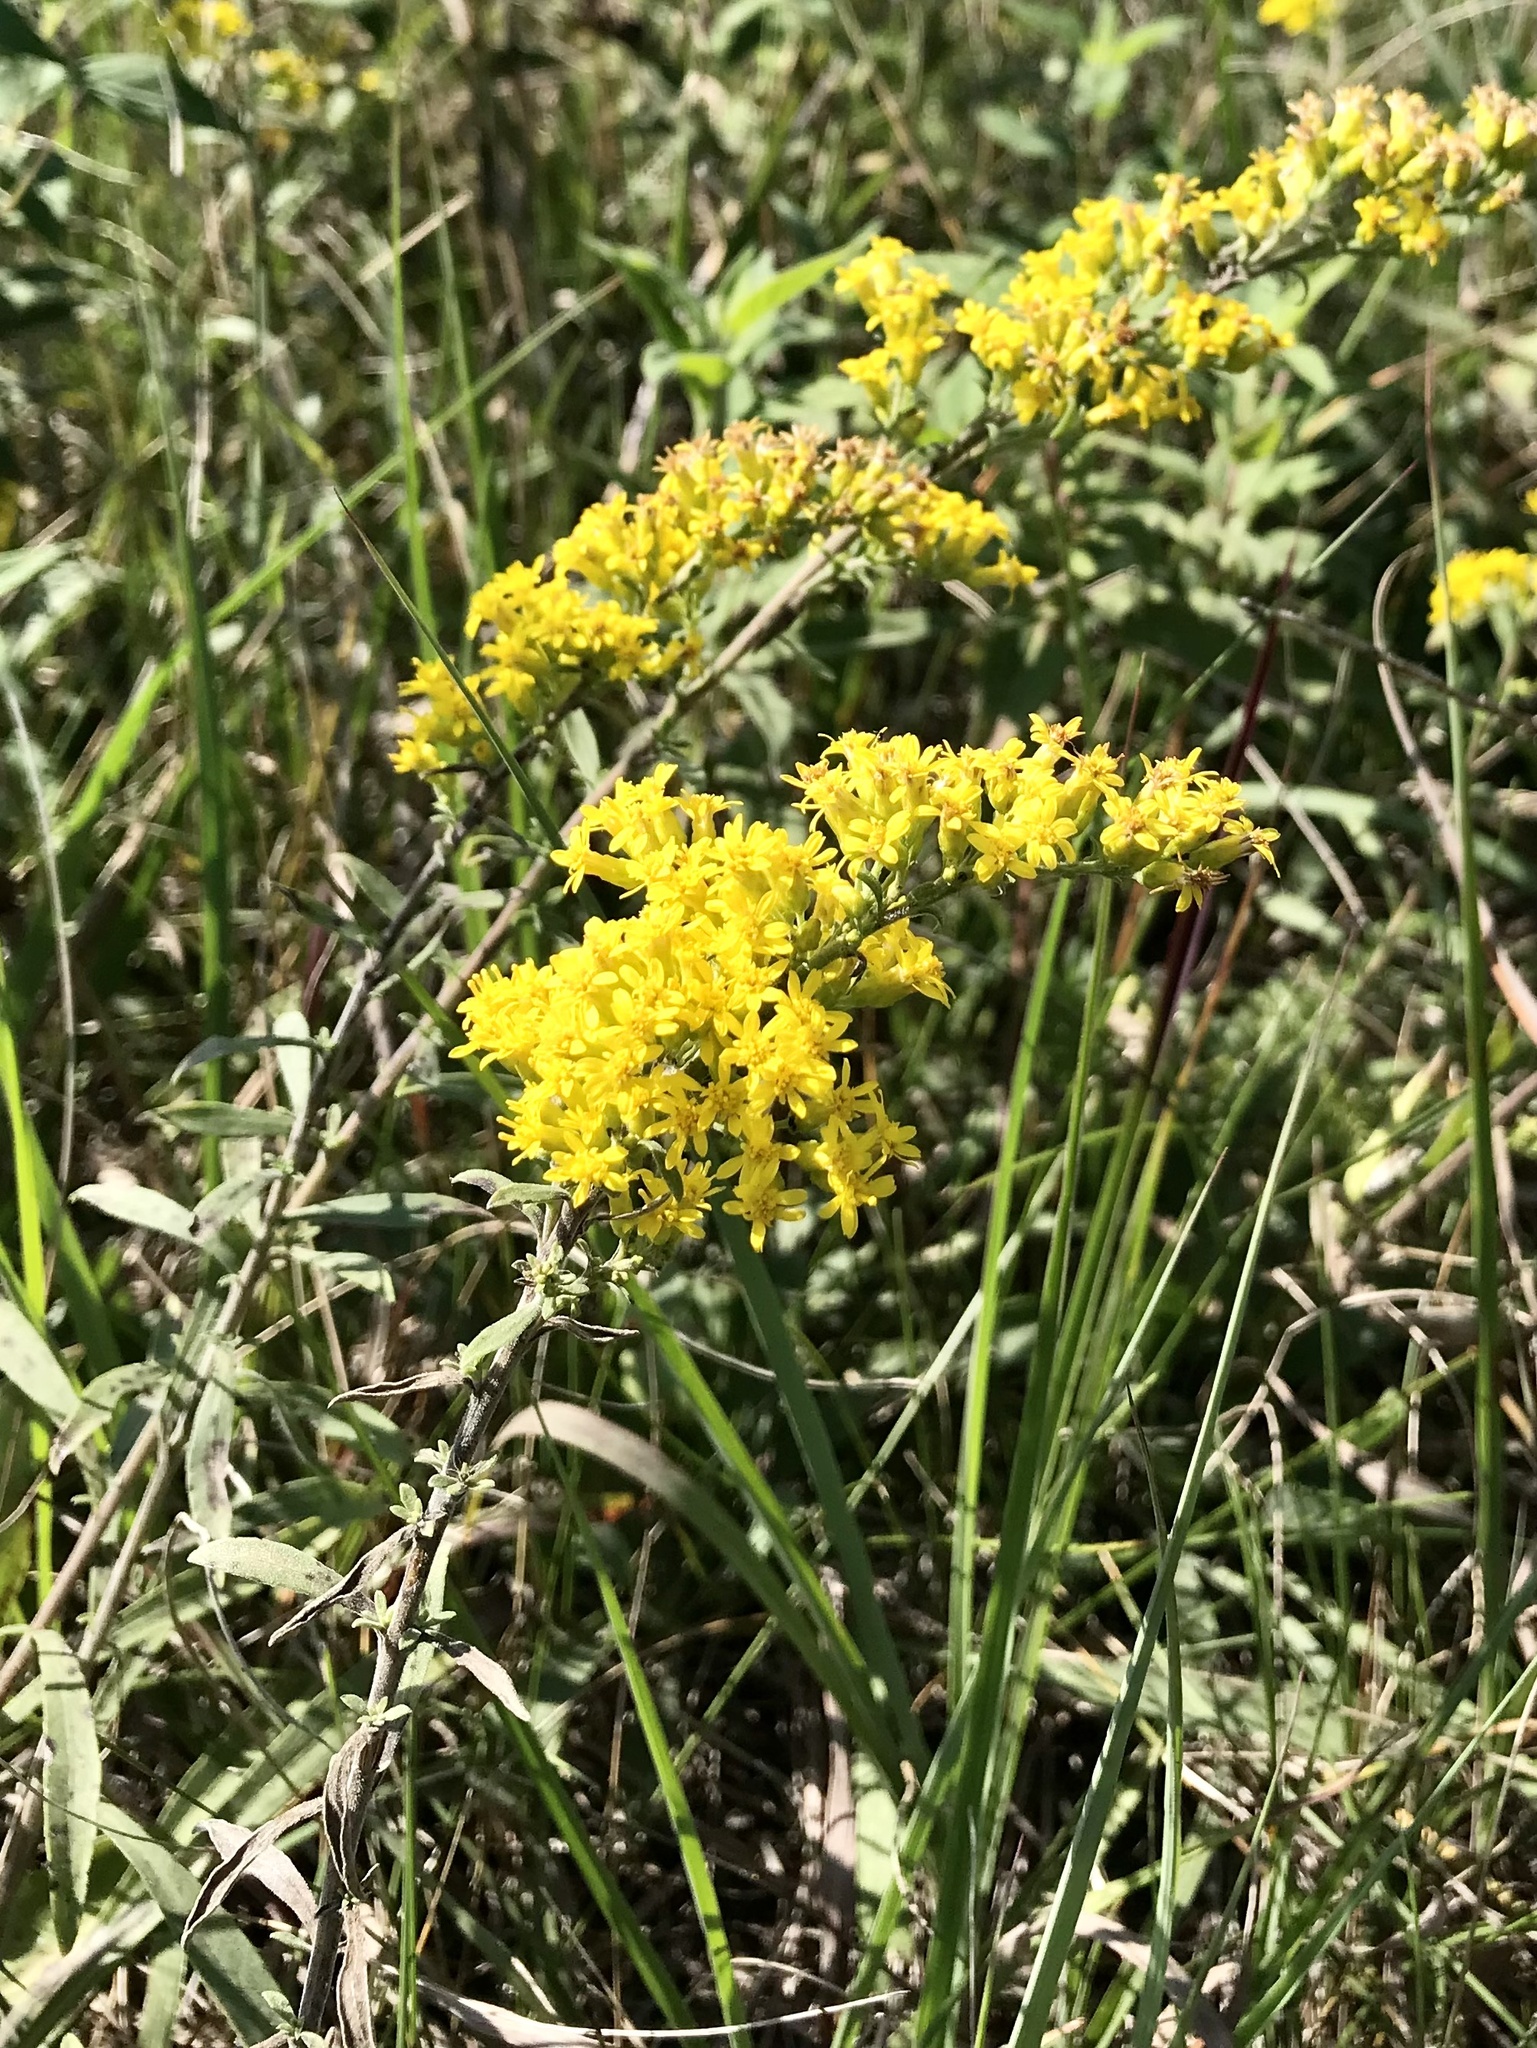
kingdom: Plantae
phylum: Tracheophyta
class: Magnoliopsida
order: Asterales
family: Asteraceae
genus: Solidago
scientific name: Solidago nemoralis
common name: Grey goldenrod
